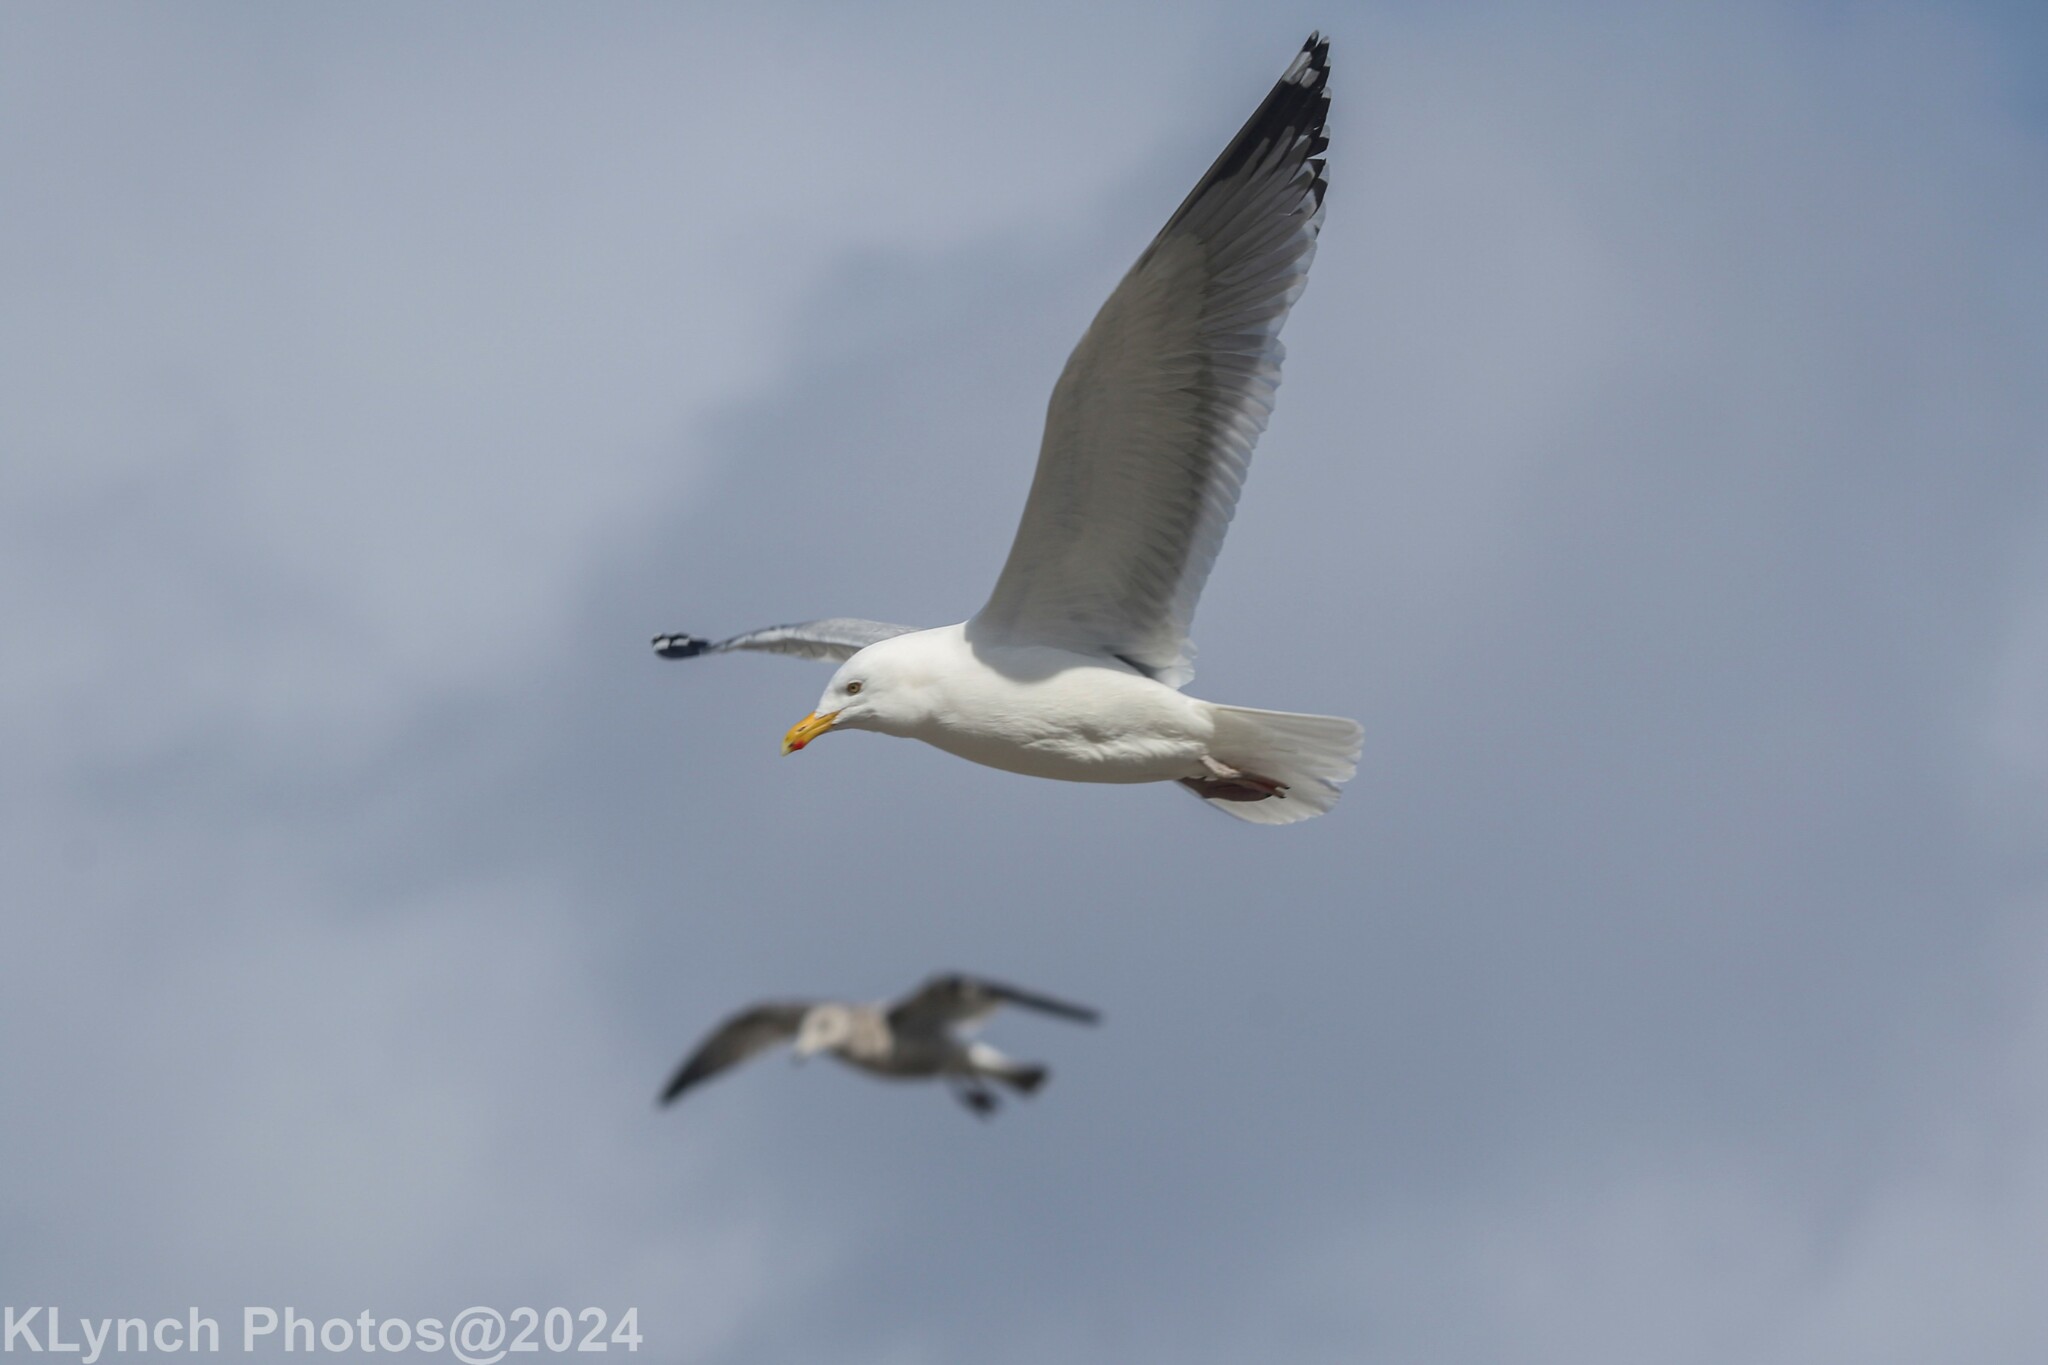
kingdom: Animalia
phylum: Chordata
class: Aves
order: Charadriiformes
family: Laridae
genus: Larus
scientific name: Larus argentatus
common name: Herring gull
